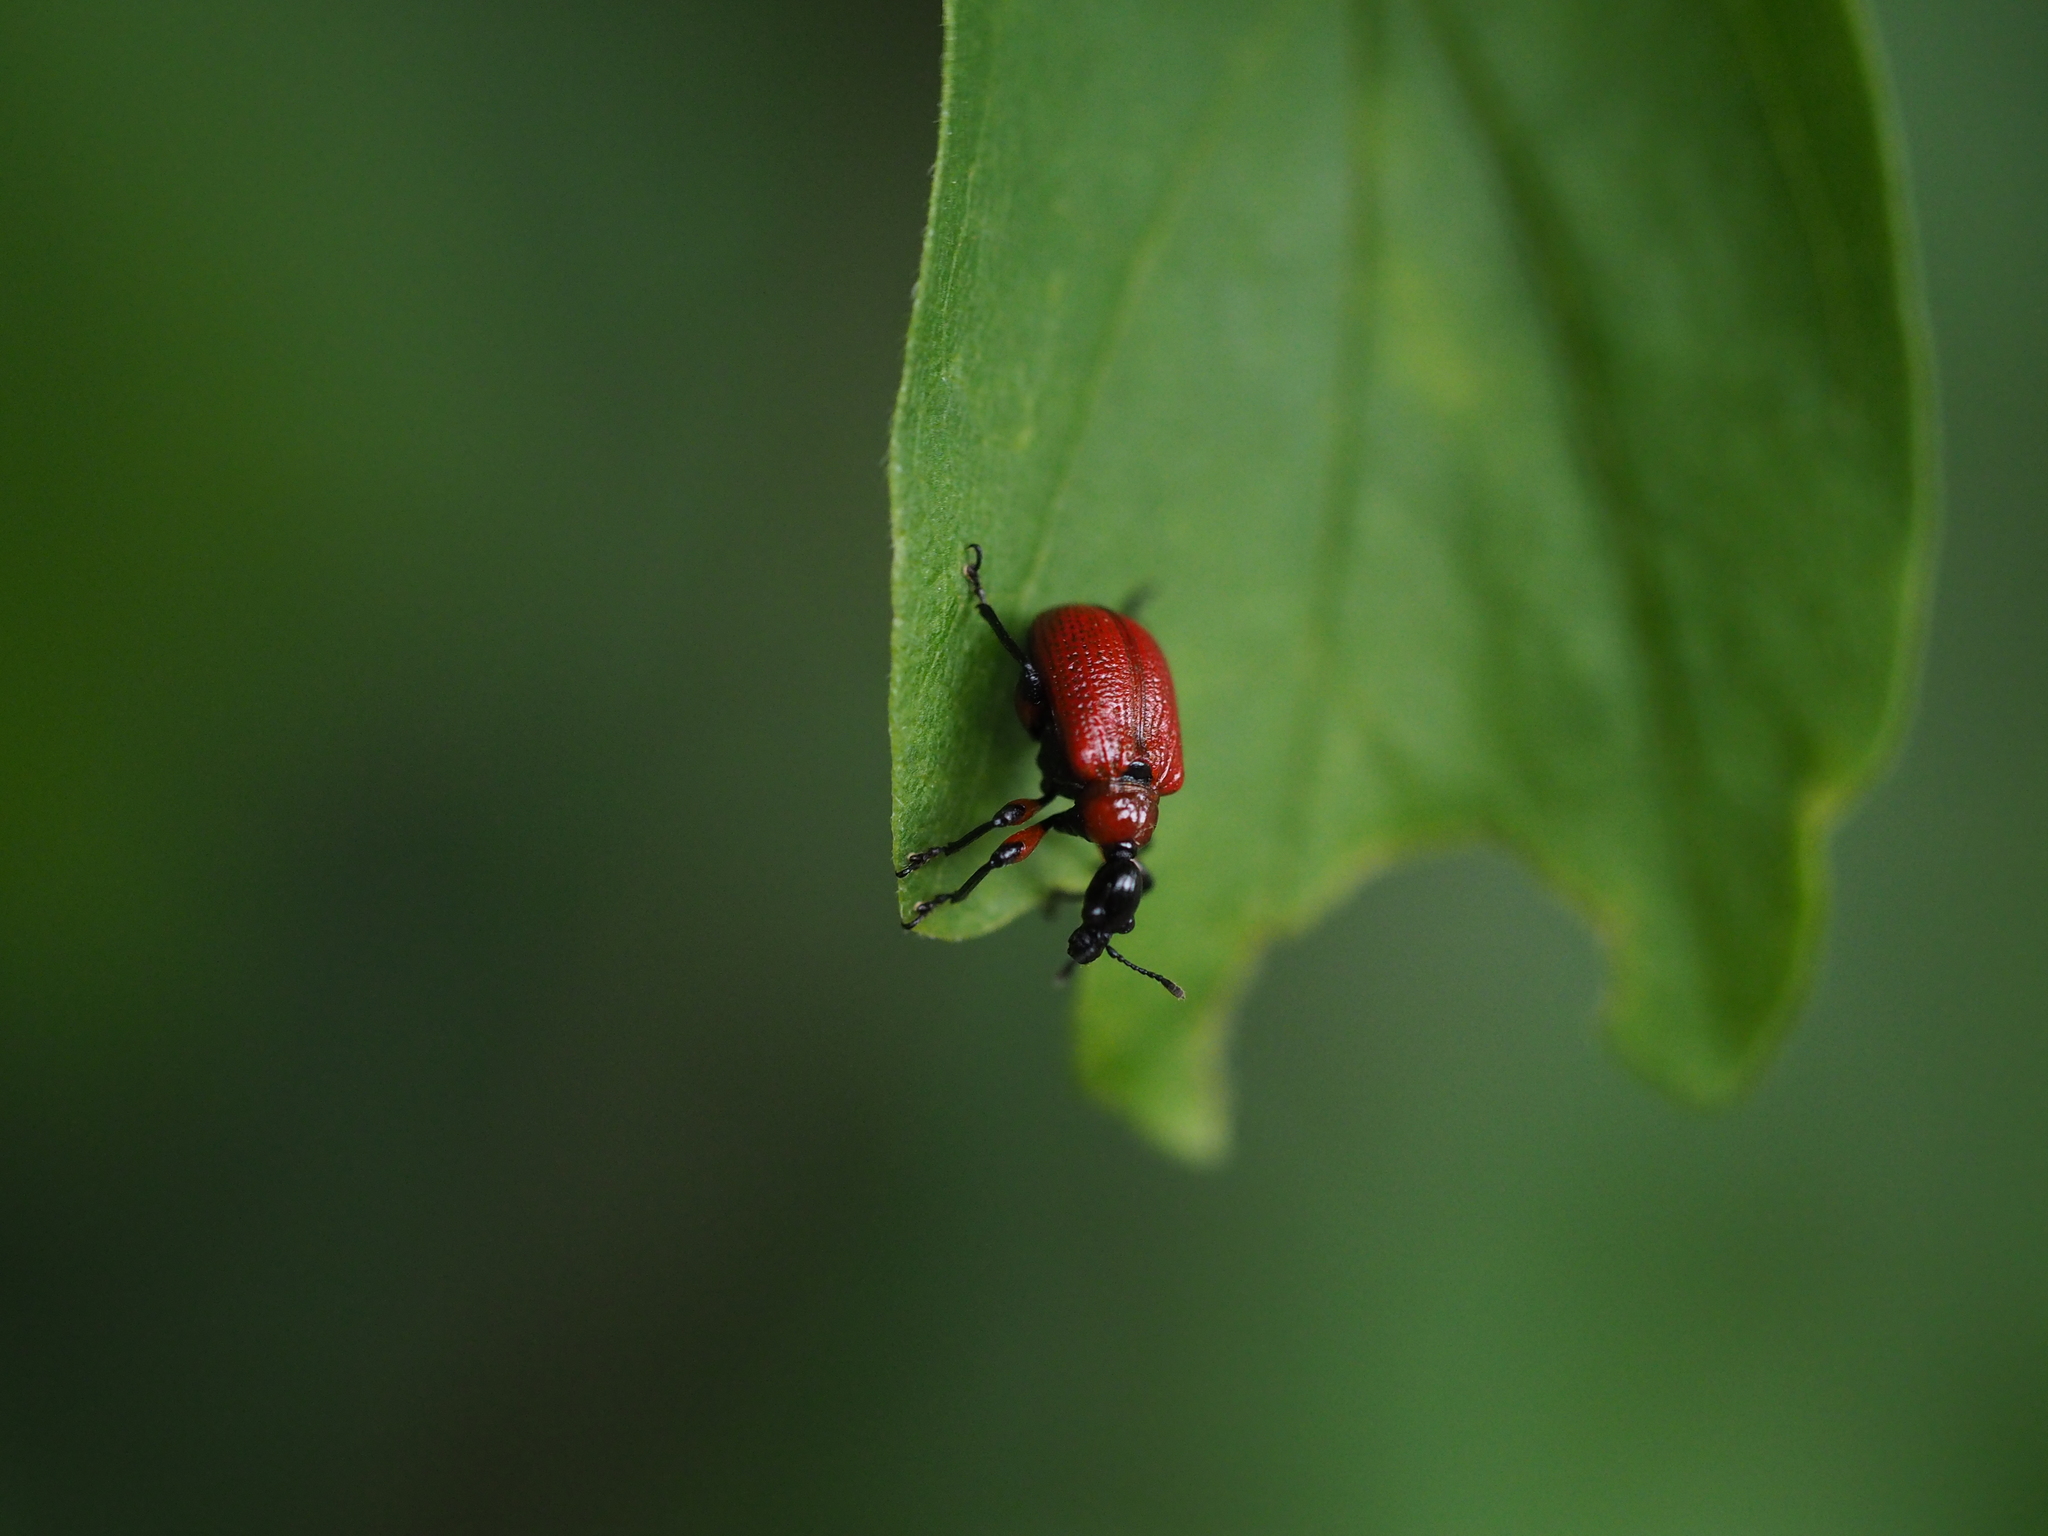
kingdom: Animalia
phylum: Arthropoda
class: Insecta
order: Coleoptera
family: Attelabidae
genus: Apoderus
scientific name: Apoderus coryli
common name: Hazel leaf roller
